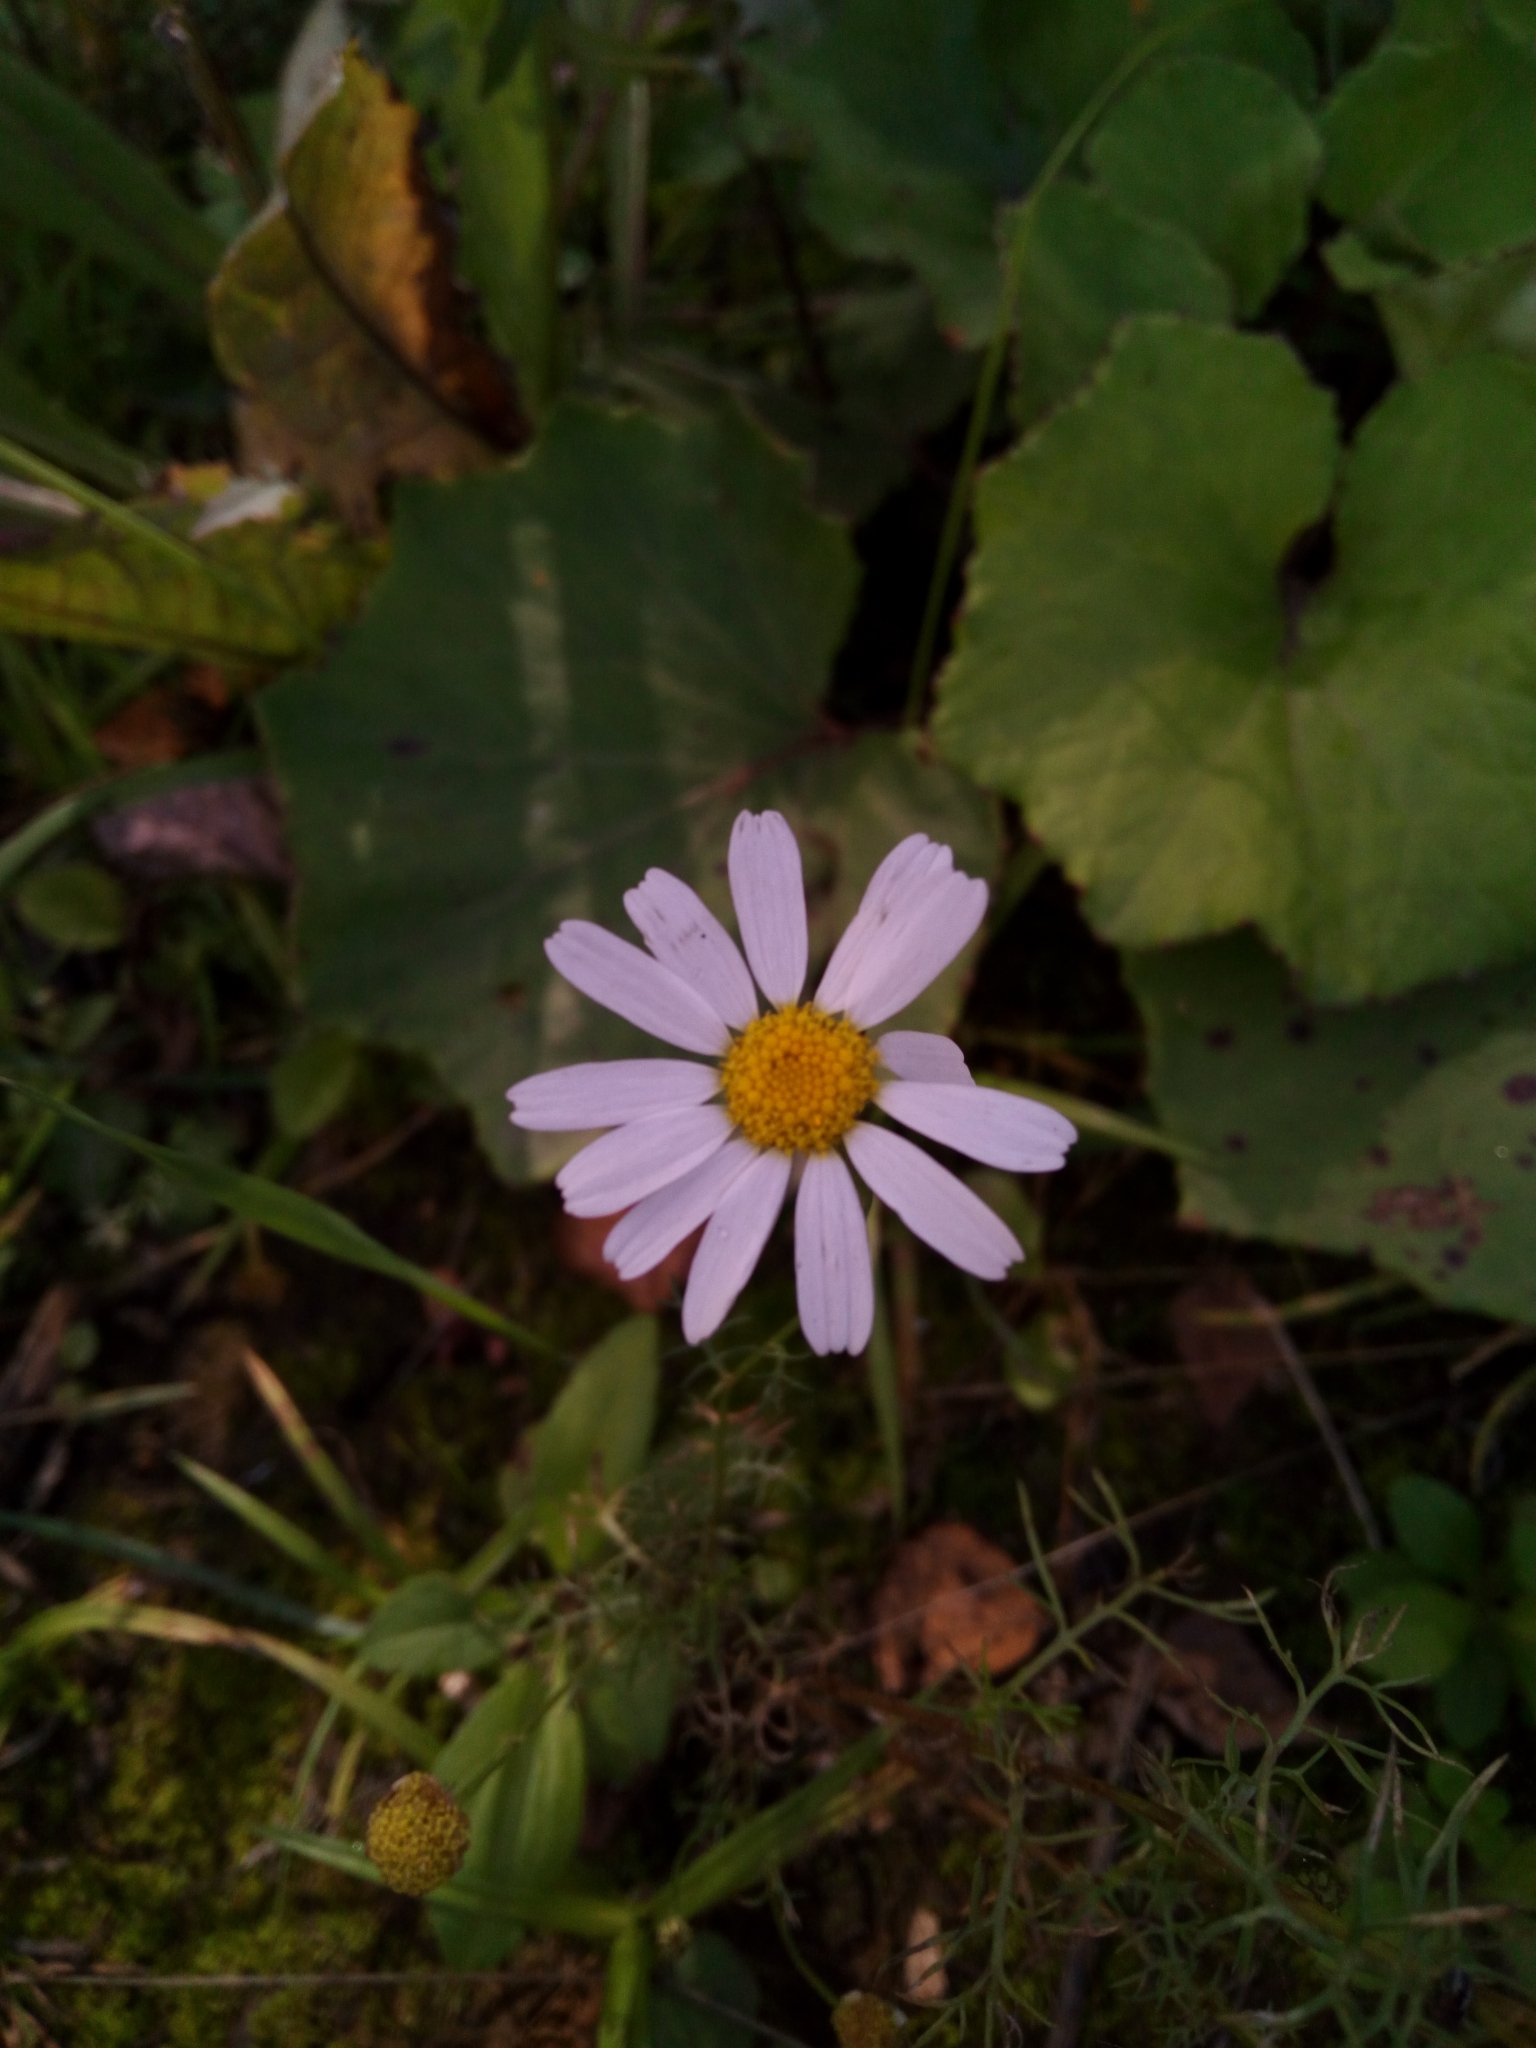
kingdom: Plantae
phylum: Tracheophyta
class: Magnoliopsida
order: Asterales
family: Asteraceae
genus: Tripleurospermum
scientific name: Tripleurospermum inodorum
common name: Scentless mayweed
